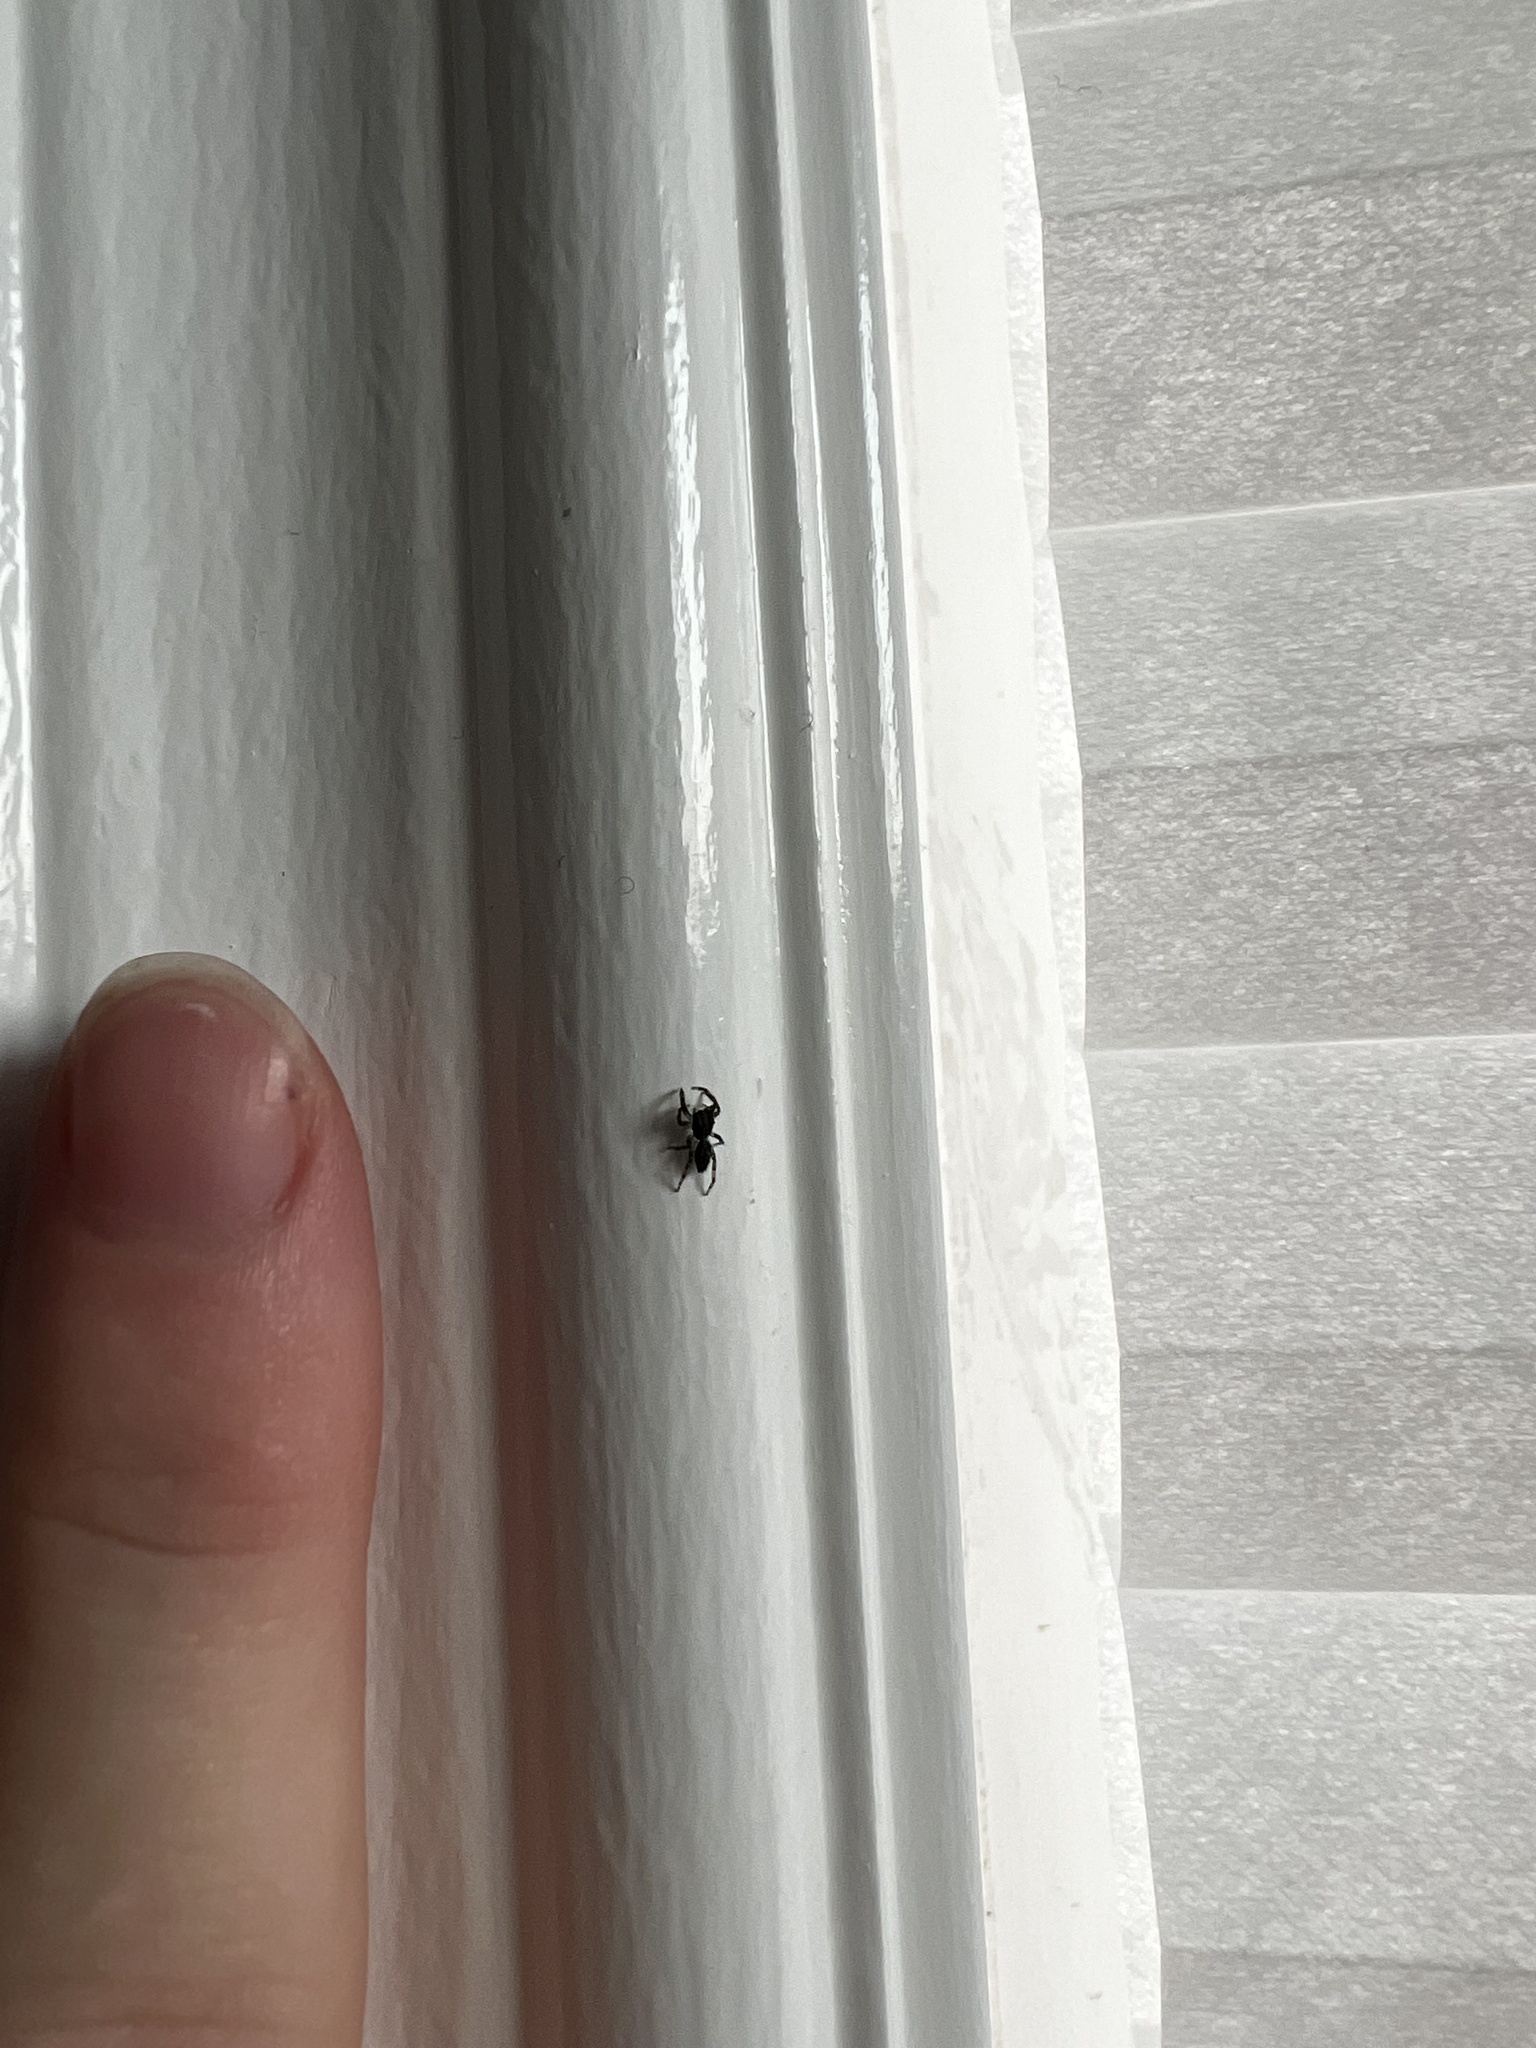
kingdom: Animalia
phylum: Arthropoda
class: Arachnida
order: Araneae
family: Salticidae
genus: Platycryptus
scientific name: Platycryptus californicus
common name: Jumping spiders
